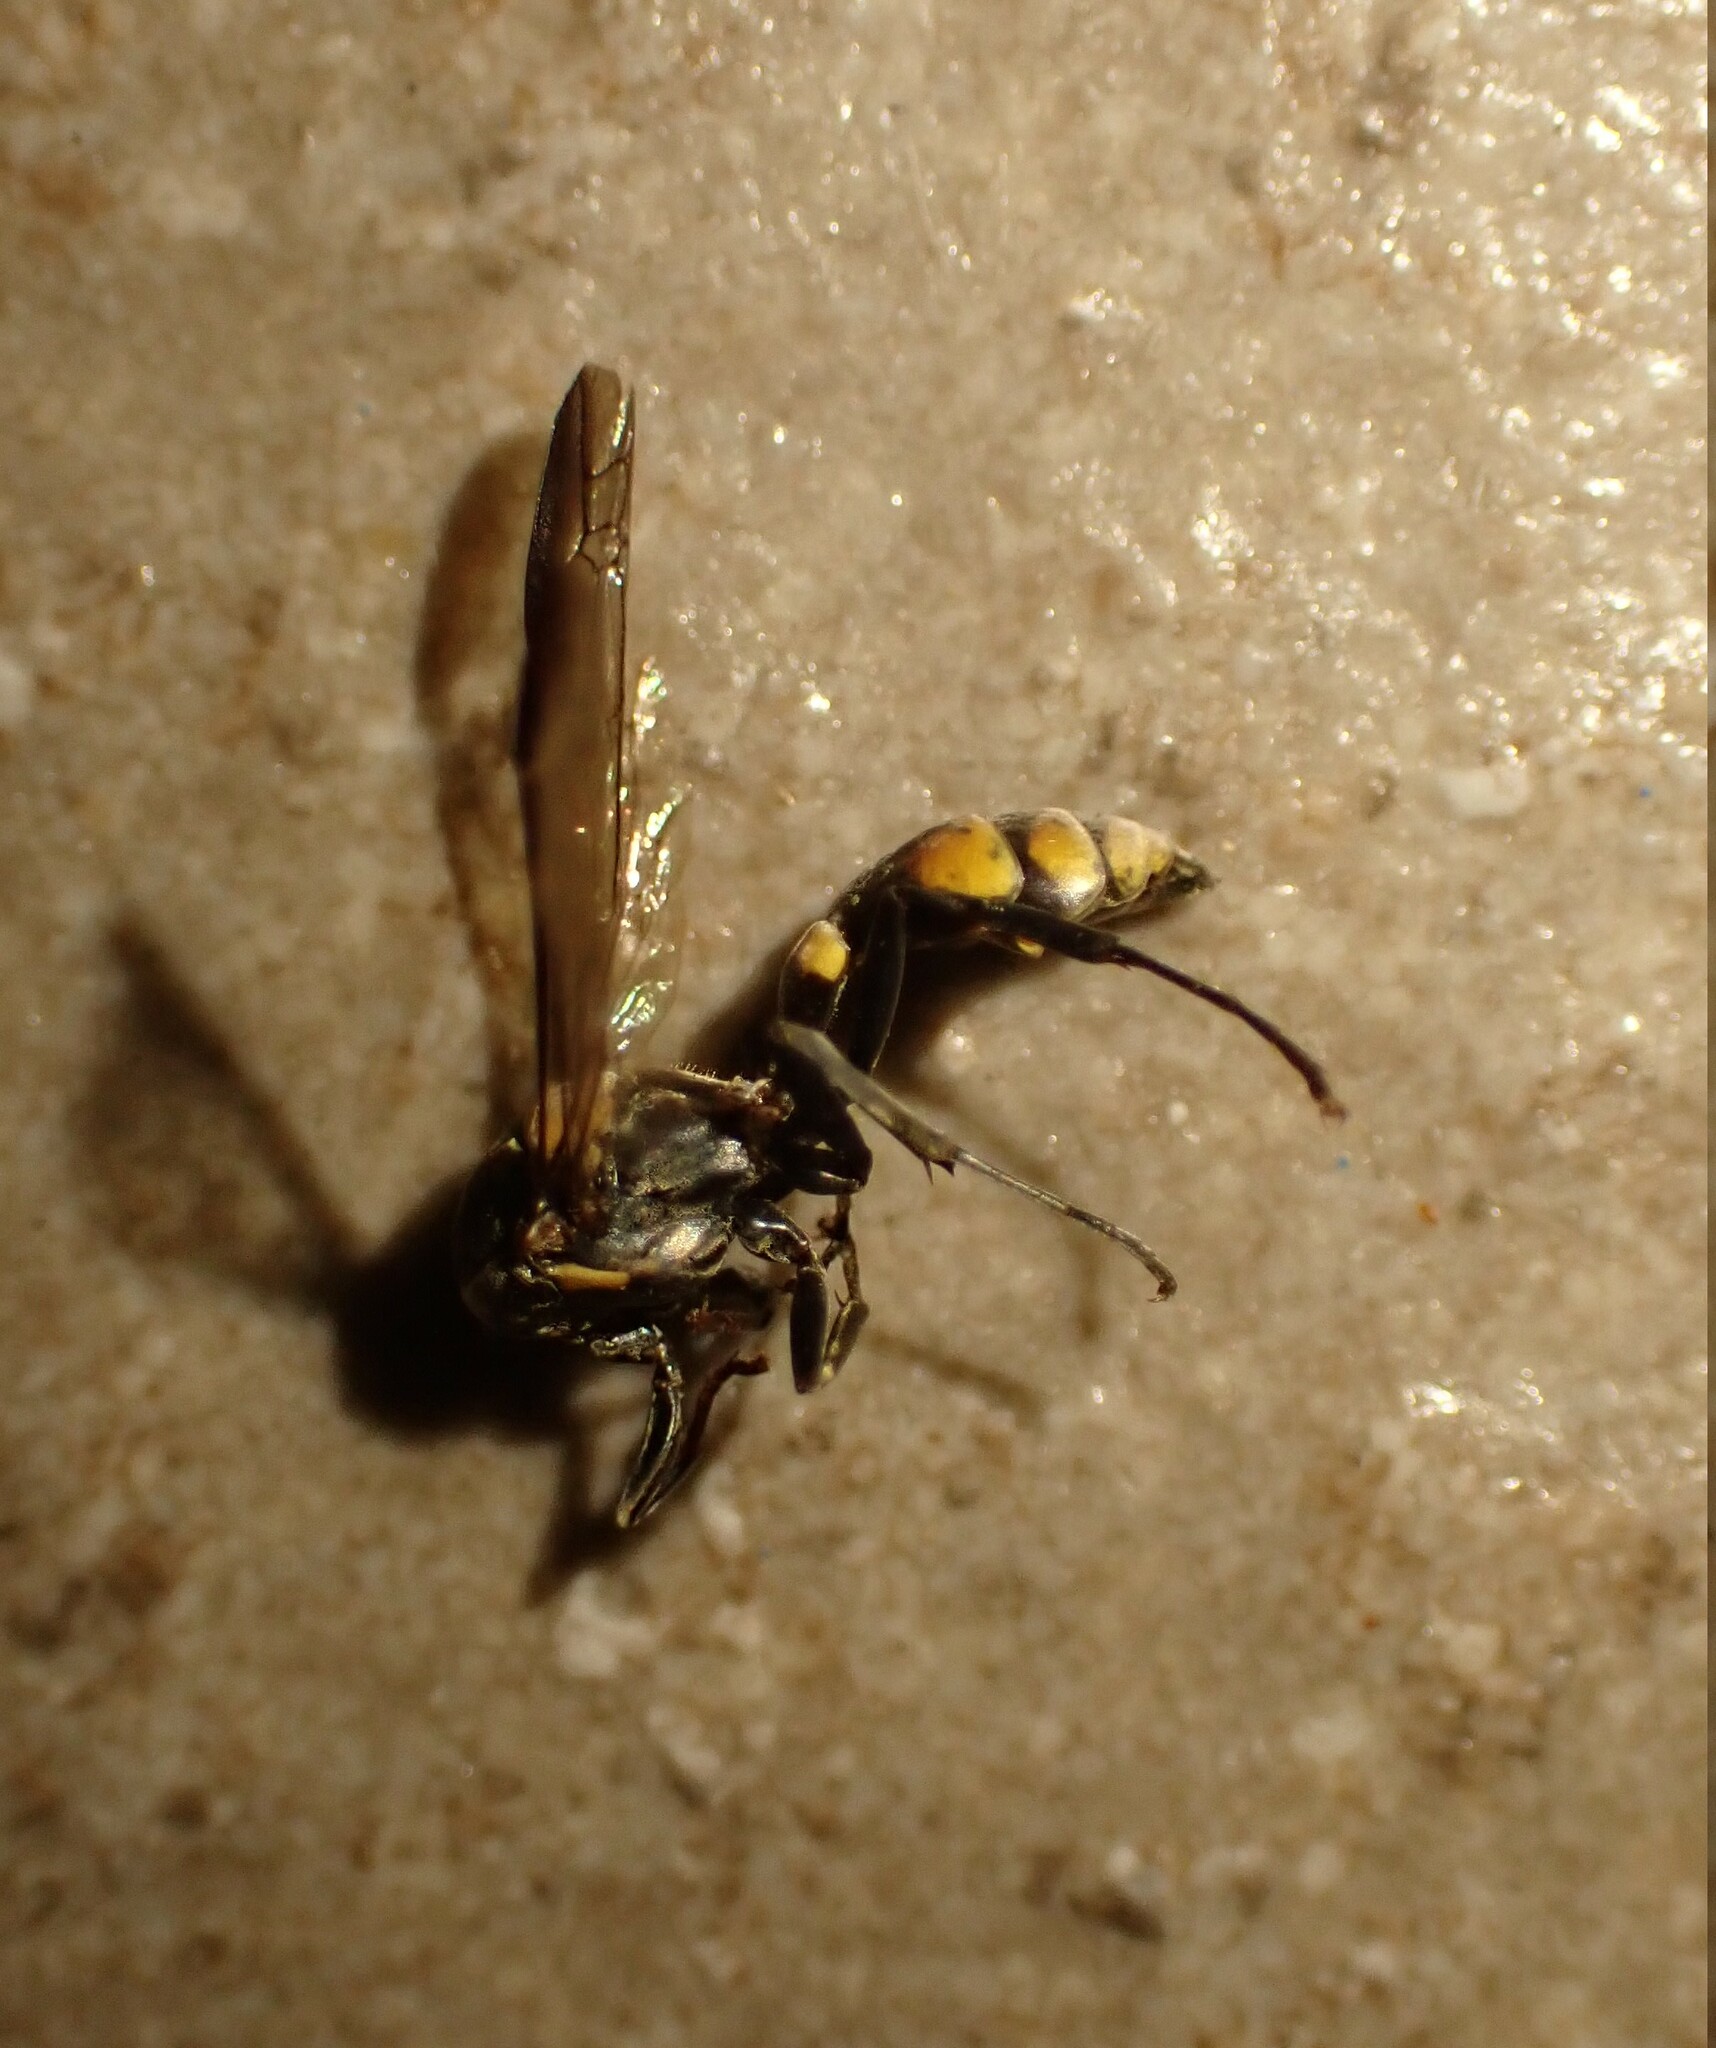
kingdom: Animalia
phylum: Arthropoda
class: Insecta
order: Hymenoptera
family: Eumenidae
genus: Polybia
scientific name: Polybia erythrothoraxla
